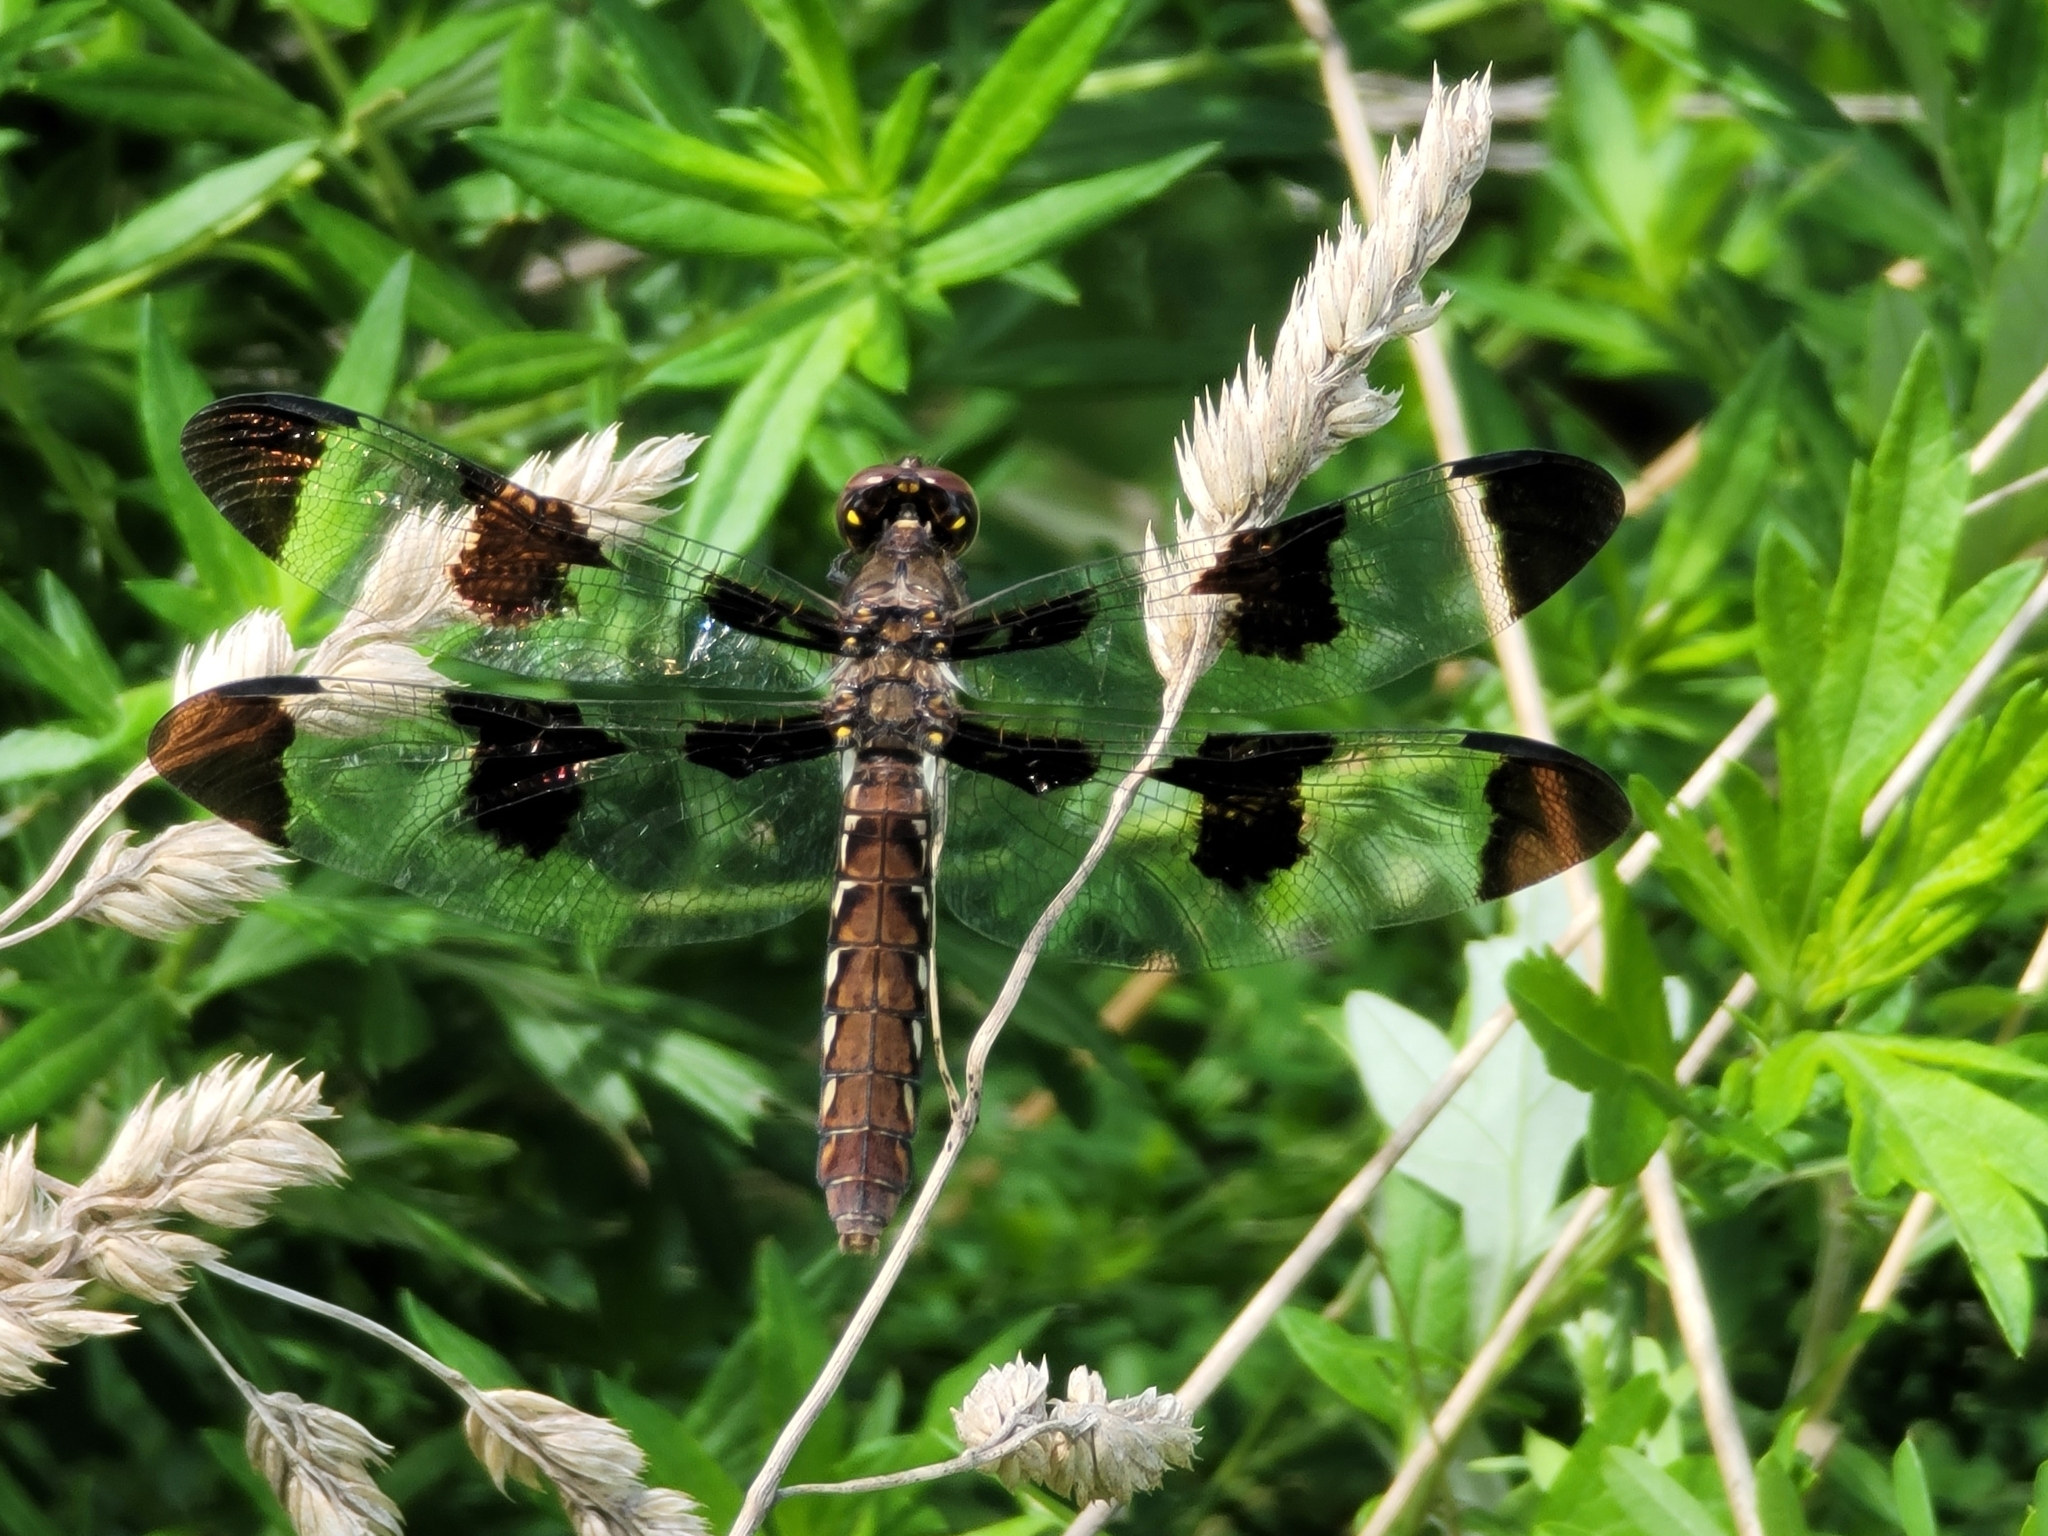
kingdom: Animalia
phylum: Arthropoda
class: Insecta
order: Odonata
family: Libellulidae
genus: Plathemis
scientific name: Plathemis lydia
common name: Common whitetail
